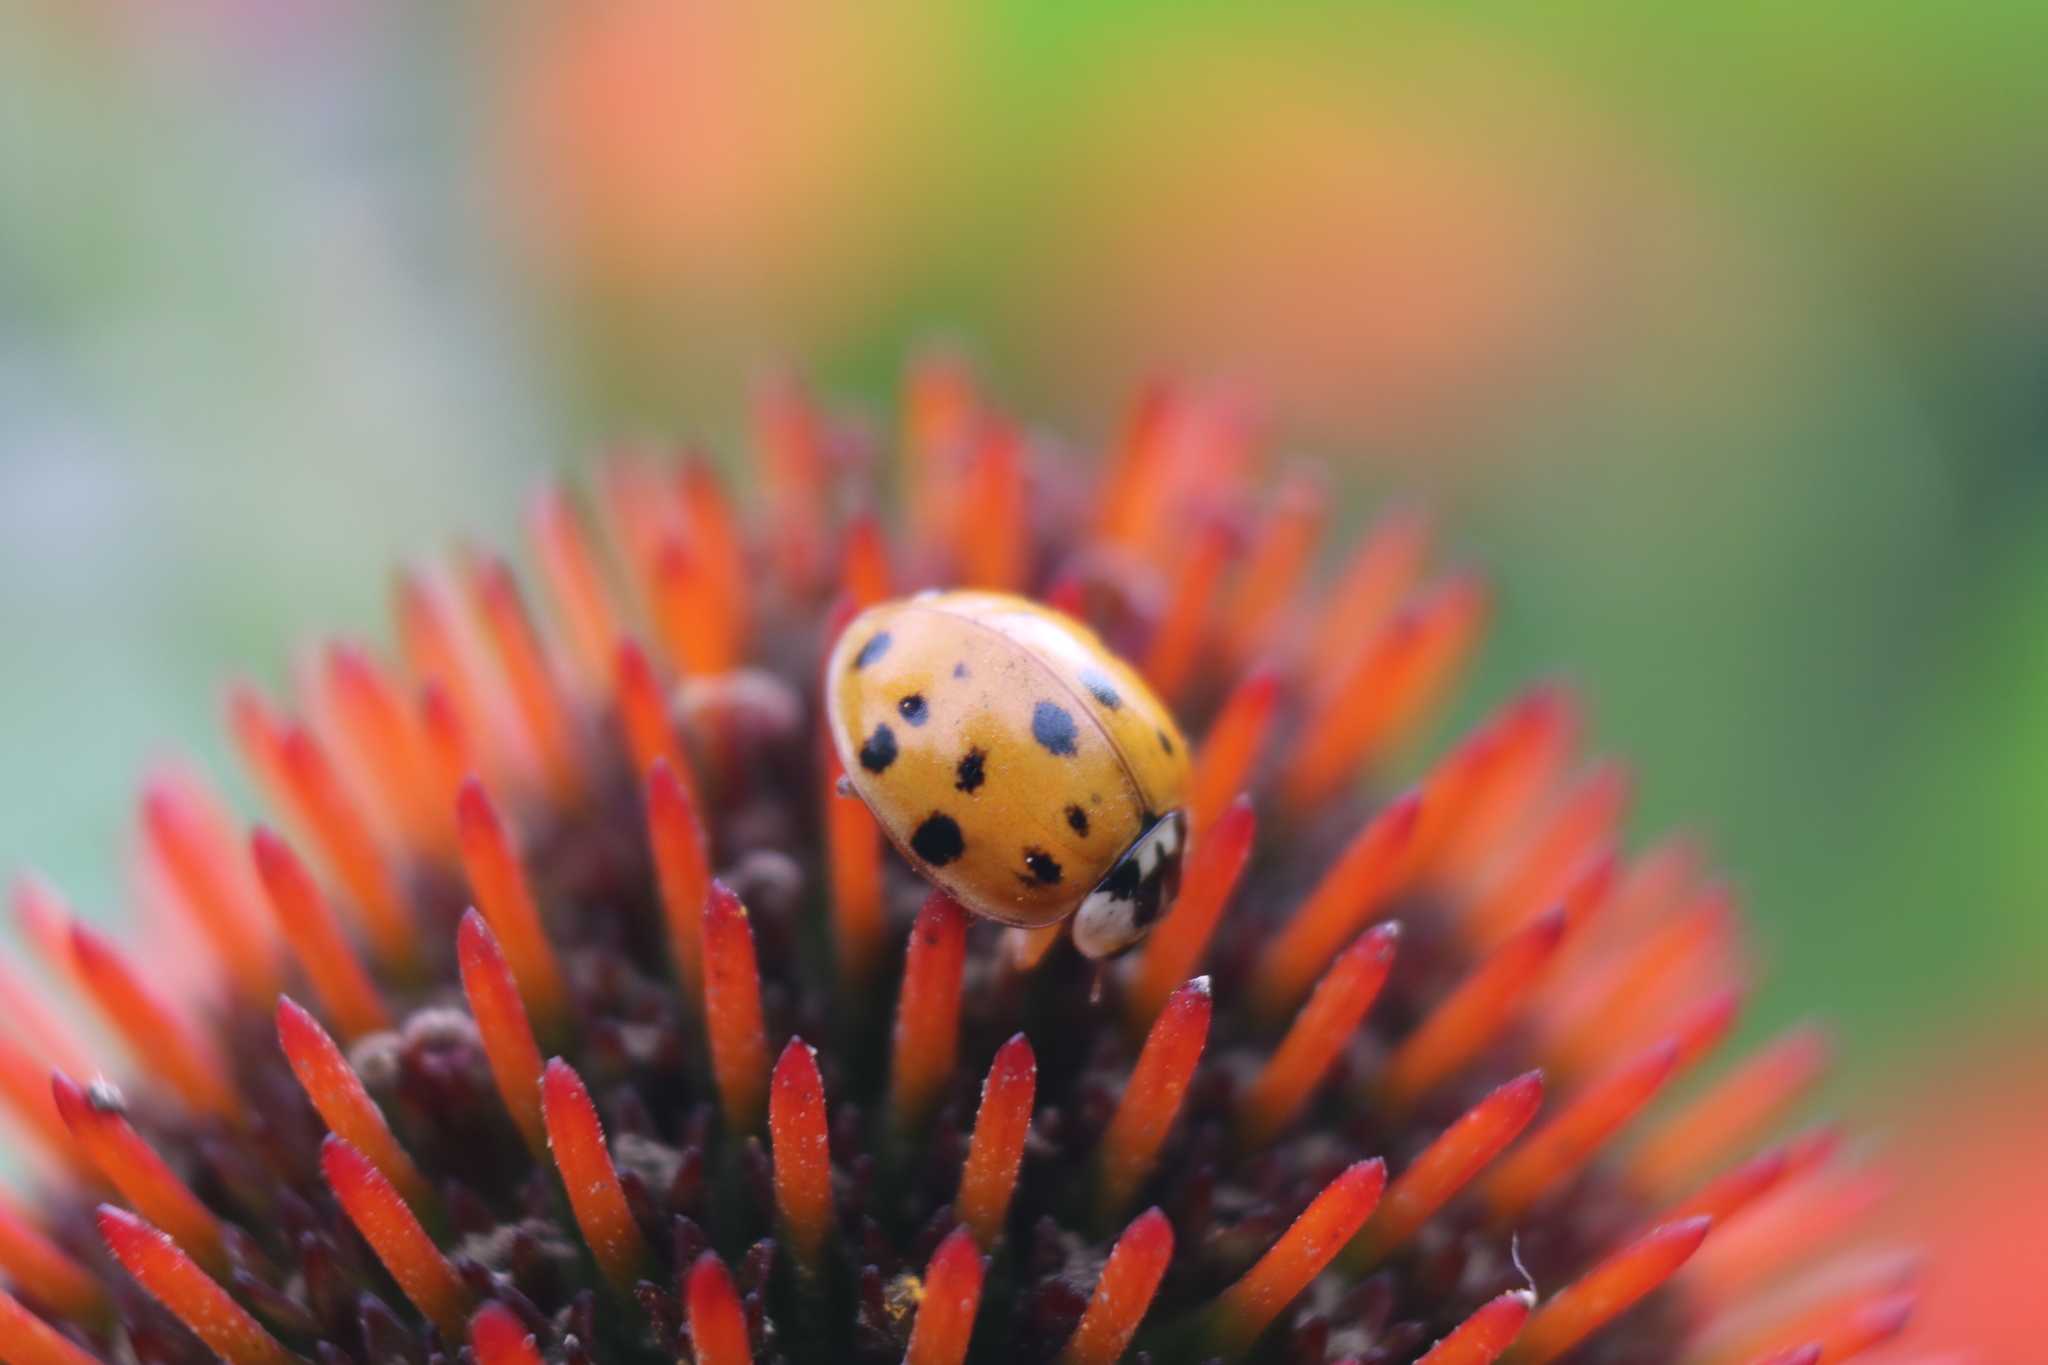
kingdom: Animalia
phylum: Arthropoda
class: Insecta
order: Coleoptera
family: Coccinellidae
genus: Harmonia
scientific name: Harmonia axyridis
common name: Harlequin ladybird
